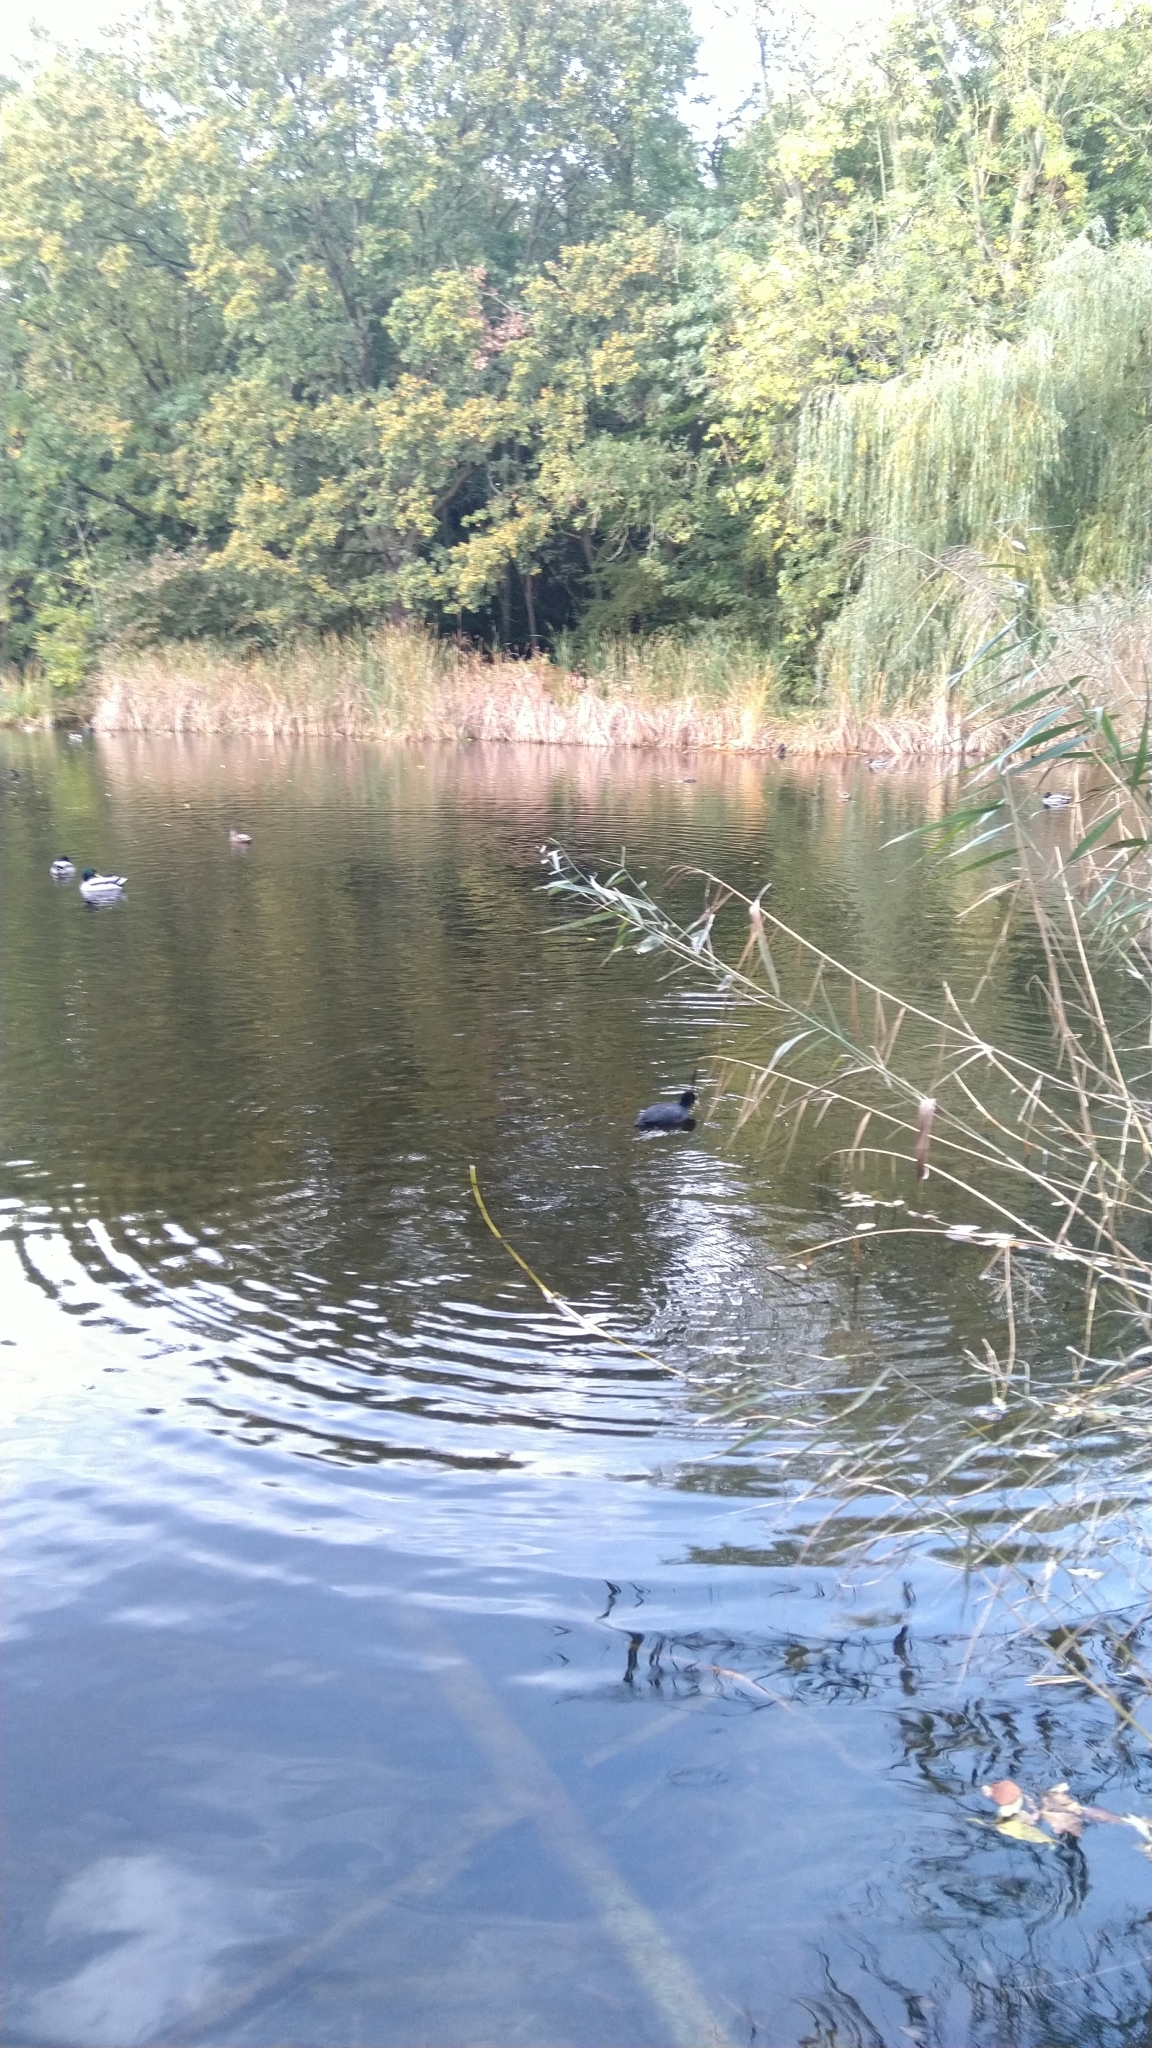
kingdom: Animalia
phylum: Chordata
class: Aves
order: Gruiformes
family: Rallidae
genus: Fulica
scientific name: Fulica atra
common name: Eurasian coot
